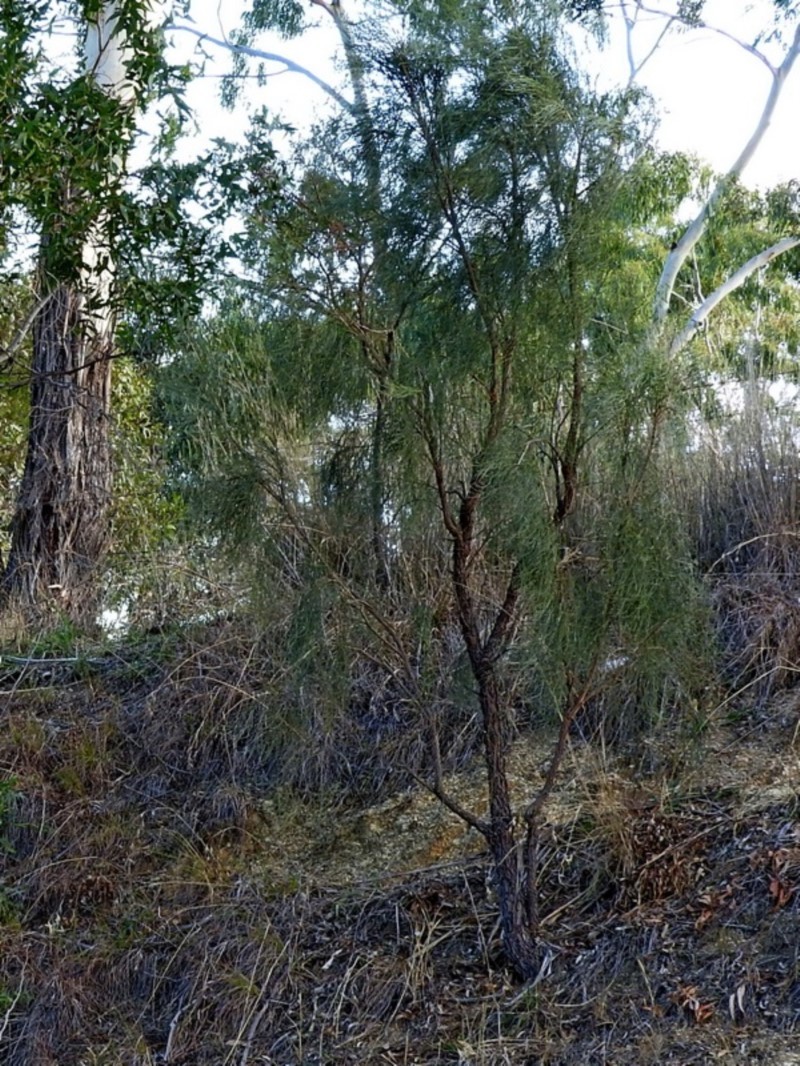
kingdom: Plantae
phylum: Tracheophyta
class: Magnoliopsida
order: Fabales
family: Fabaceae
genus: Jacksonia
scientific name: Jacksonia scoparia
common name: Dogwood
